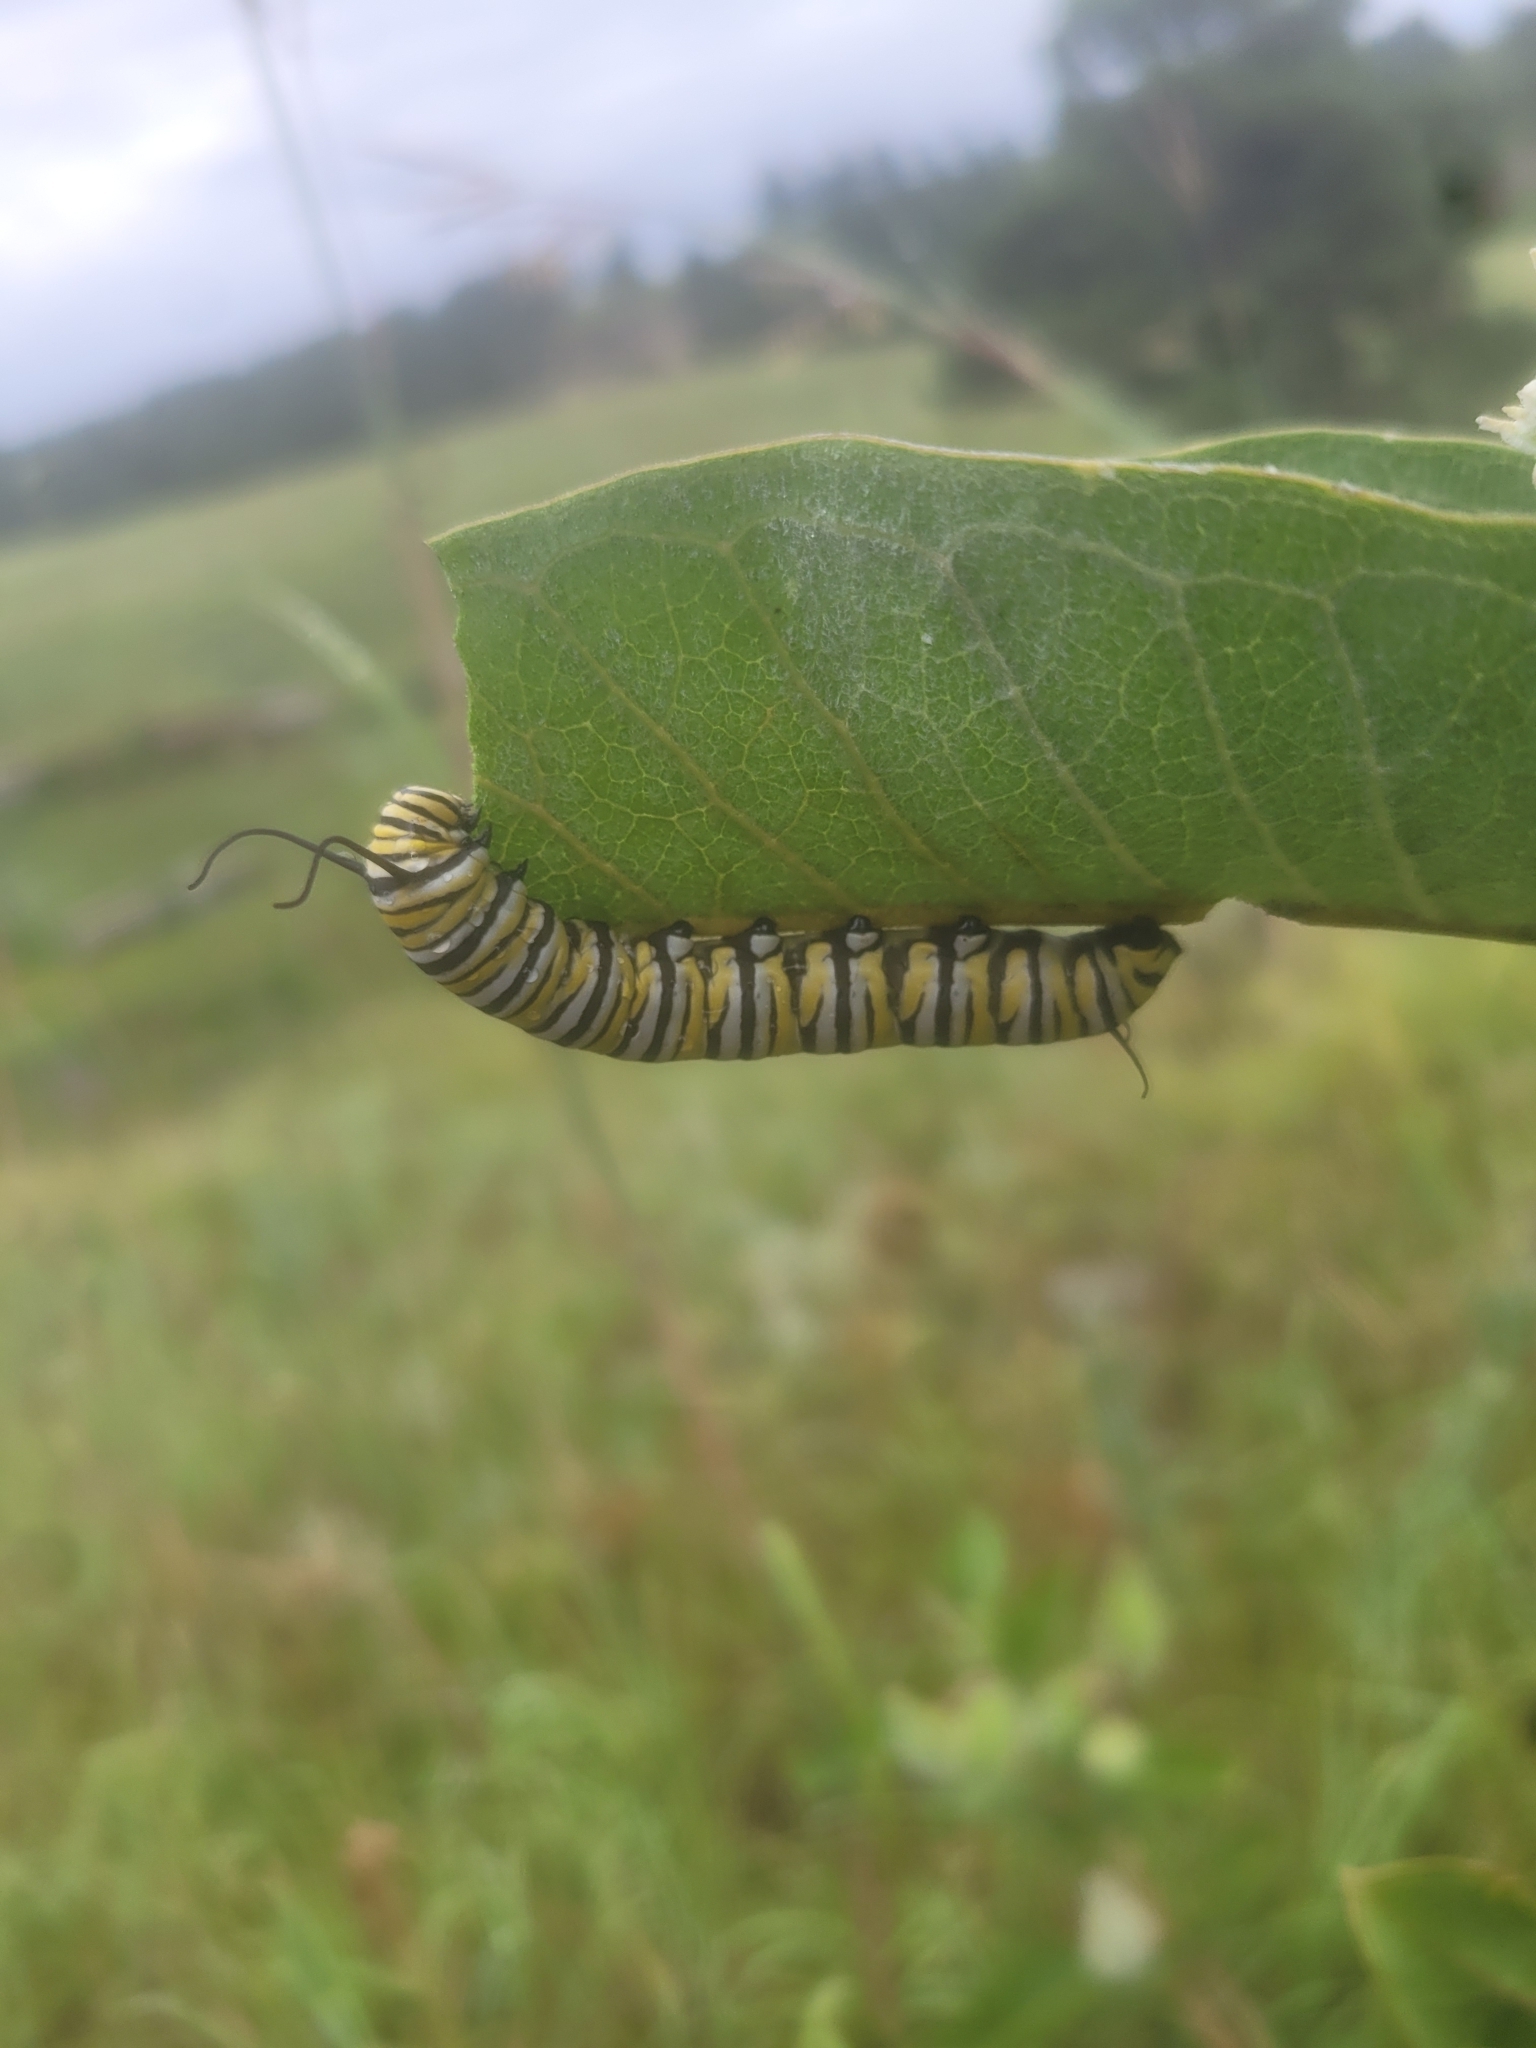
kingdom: Animalia
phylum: Arthropoda
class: Insecta
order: Lepidoptera
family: Nymphalidae
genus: Danaus
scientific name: Danaus plexippus
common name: Monarch
